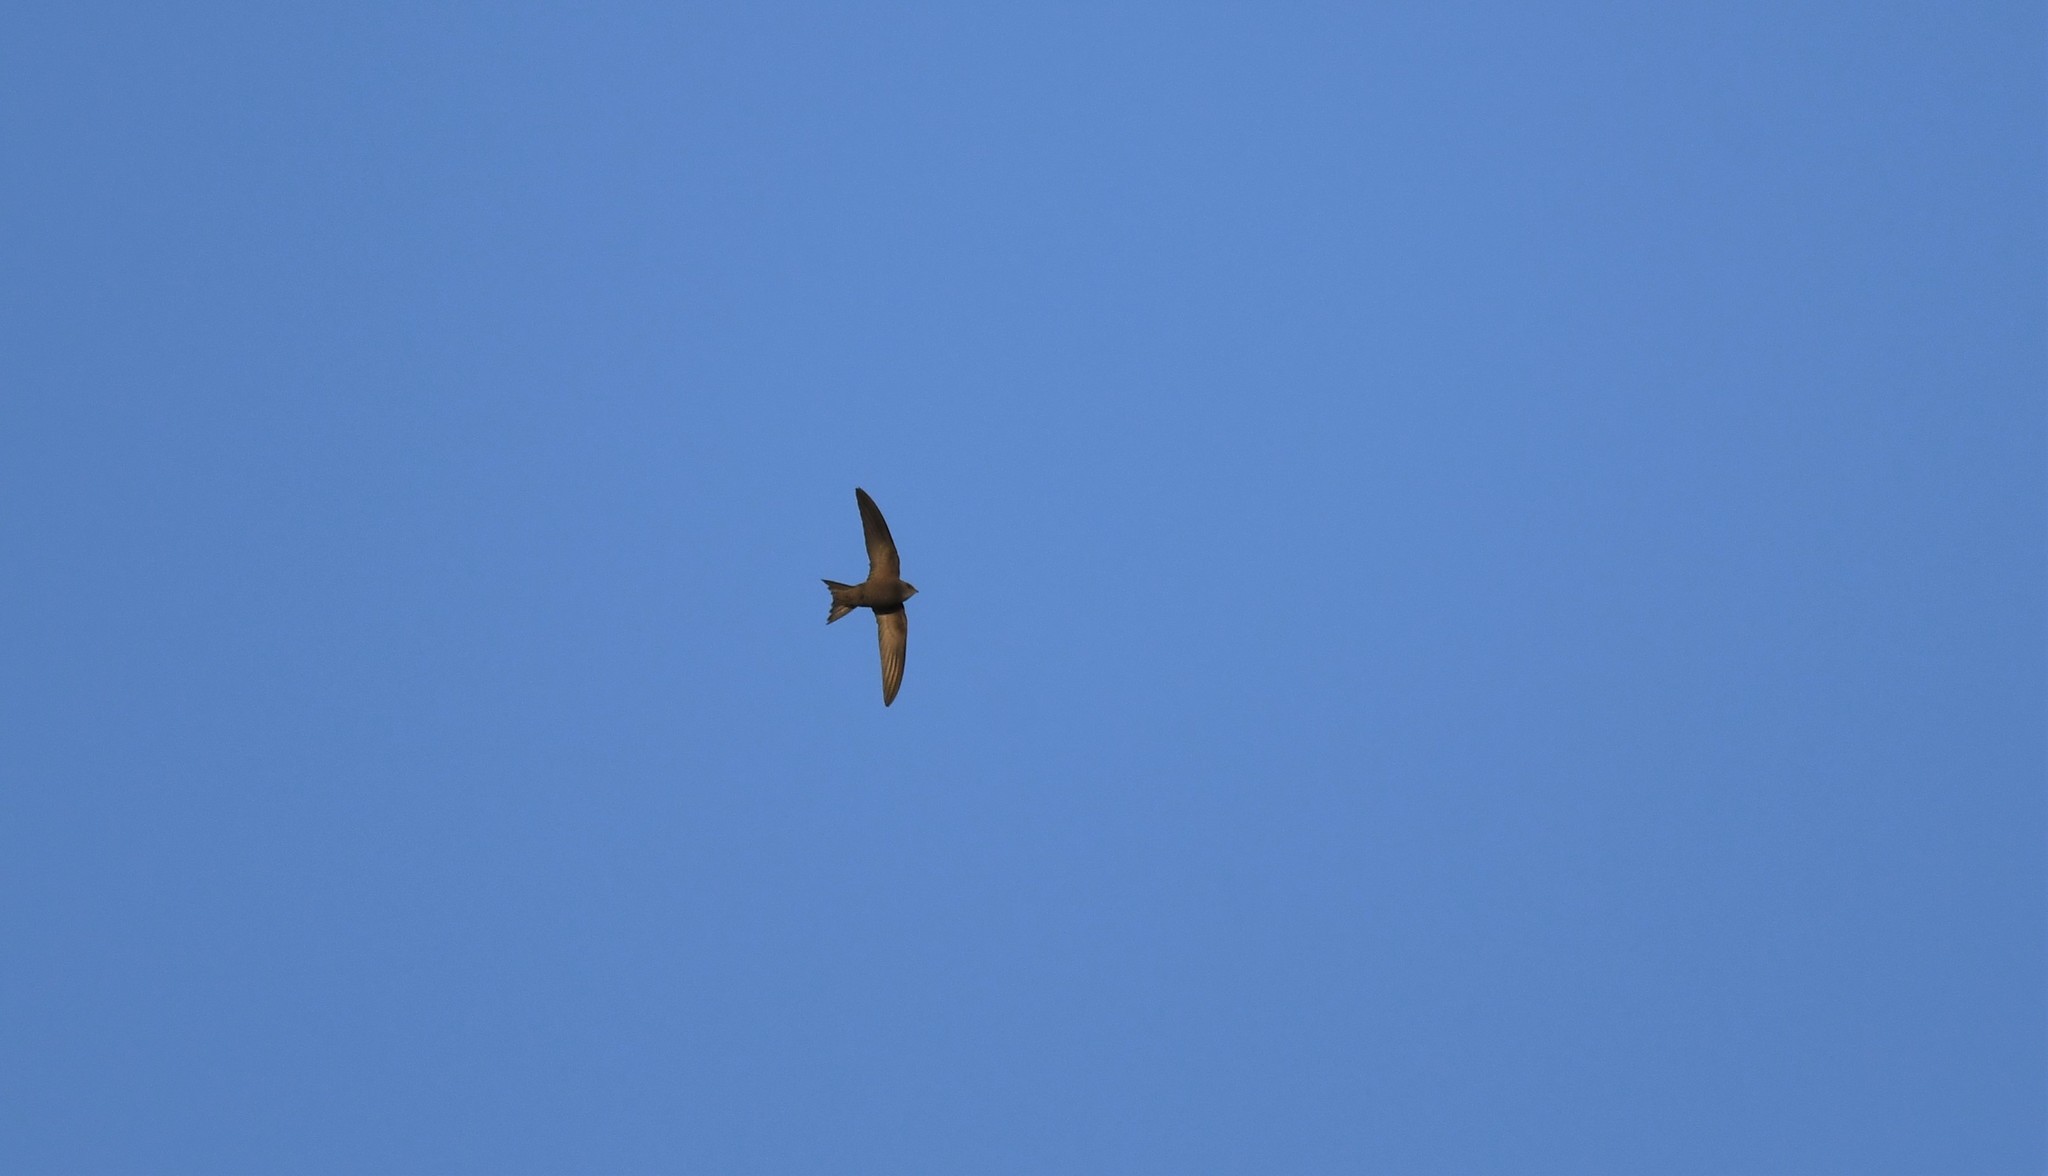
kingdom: Animalia
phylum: Chordata
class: Aves
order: Apodiformes
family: Apodidae
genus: Apus
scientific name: Apus pallidus
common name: Pallid swift
